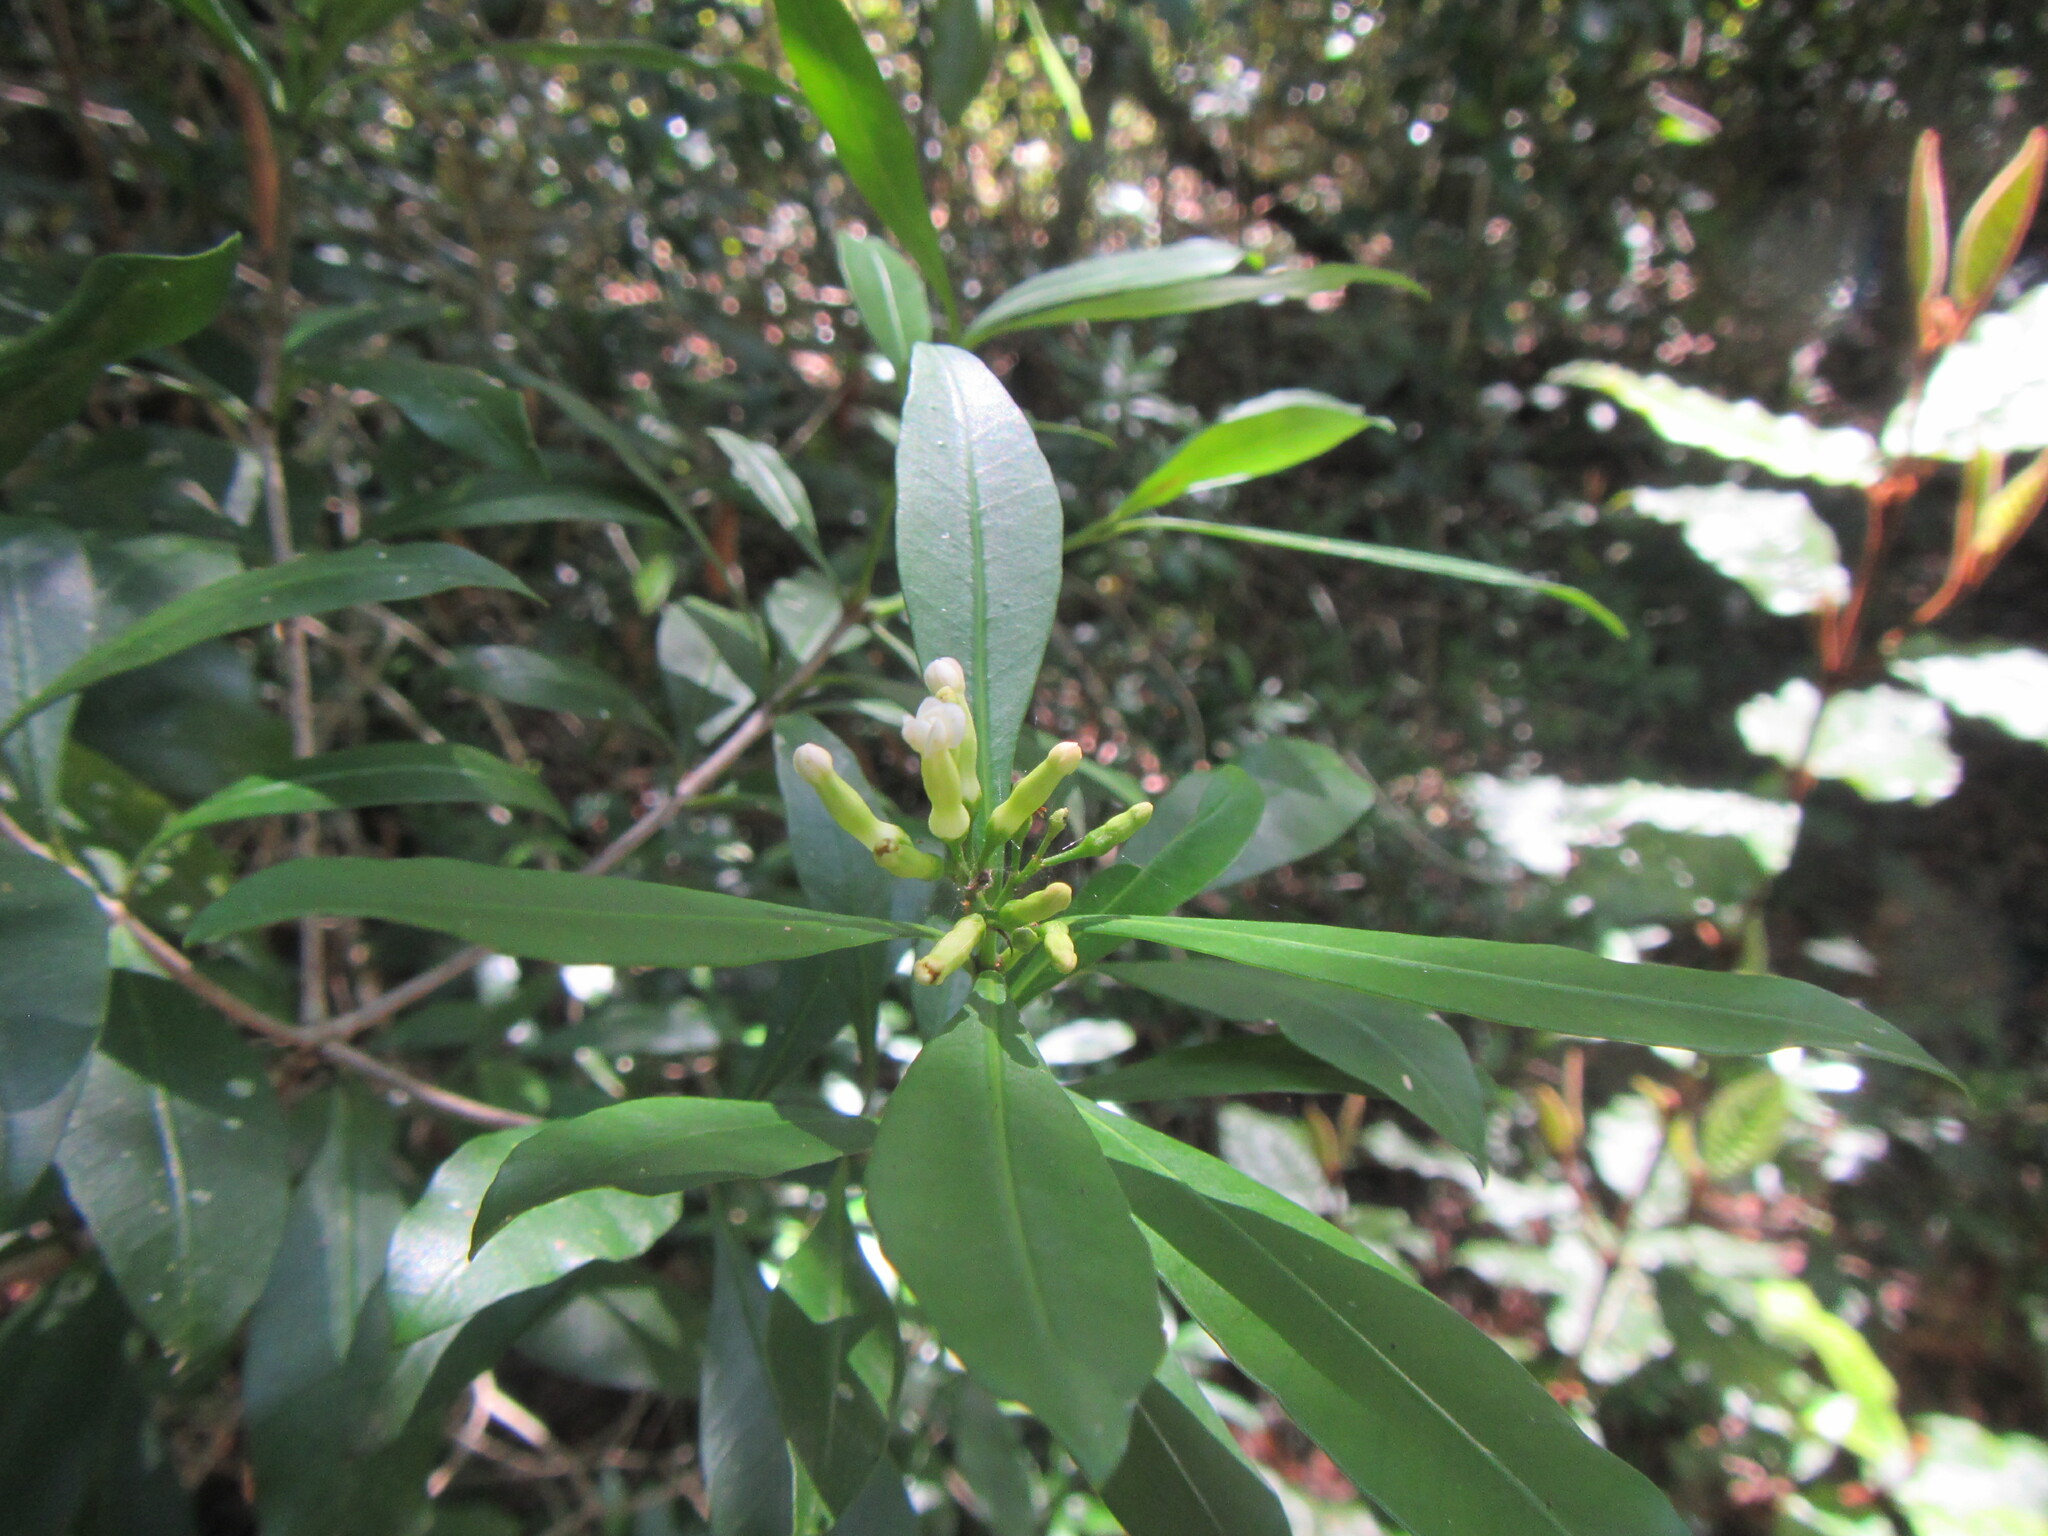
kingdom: Plantae
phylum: Tracheophyta
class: Magnoliopsida
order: Gentianales
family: Apocynaceae
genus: Gonioma
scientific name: Gonioma kamassi
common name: Kamassi
